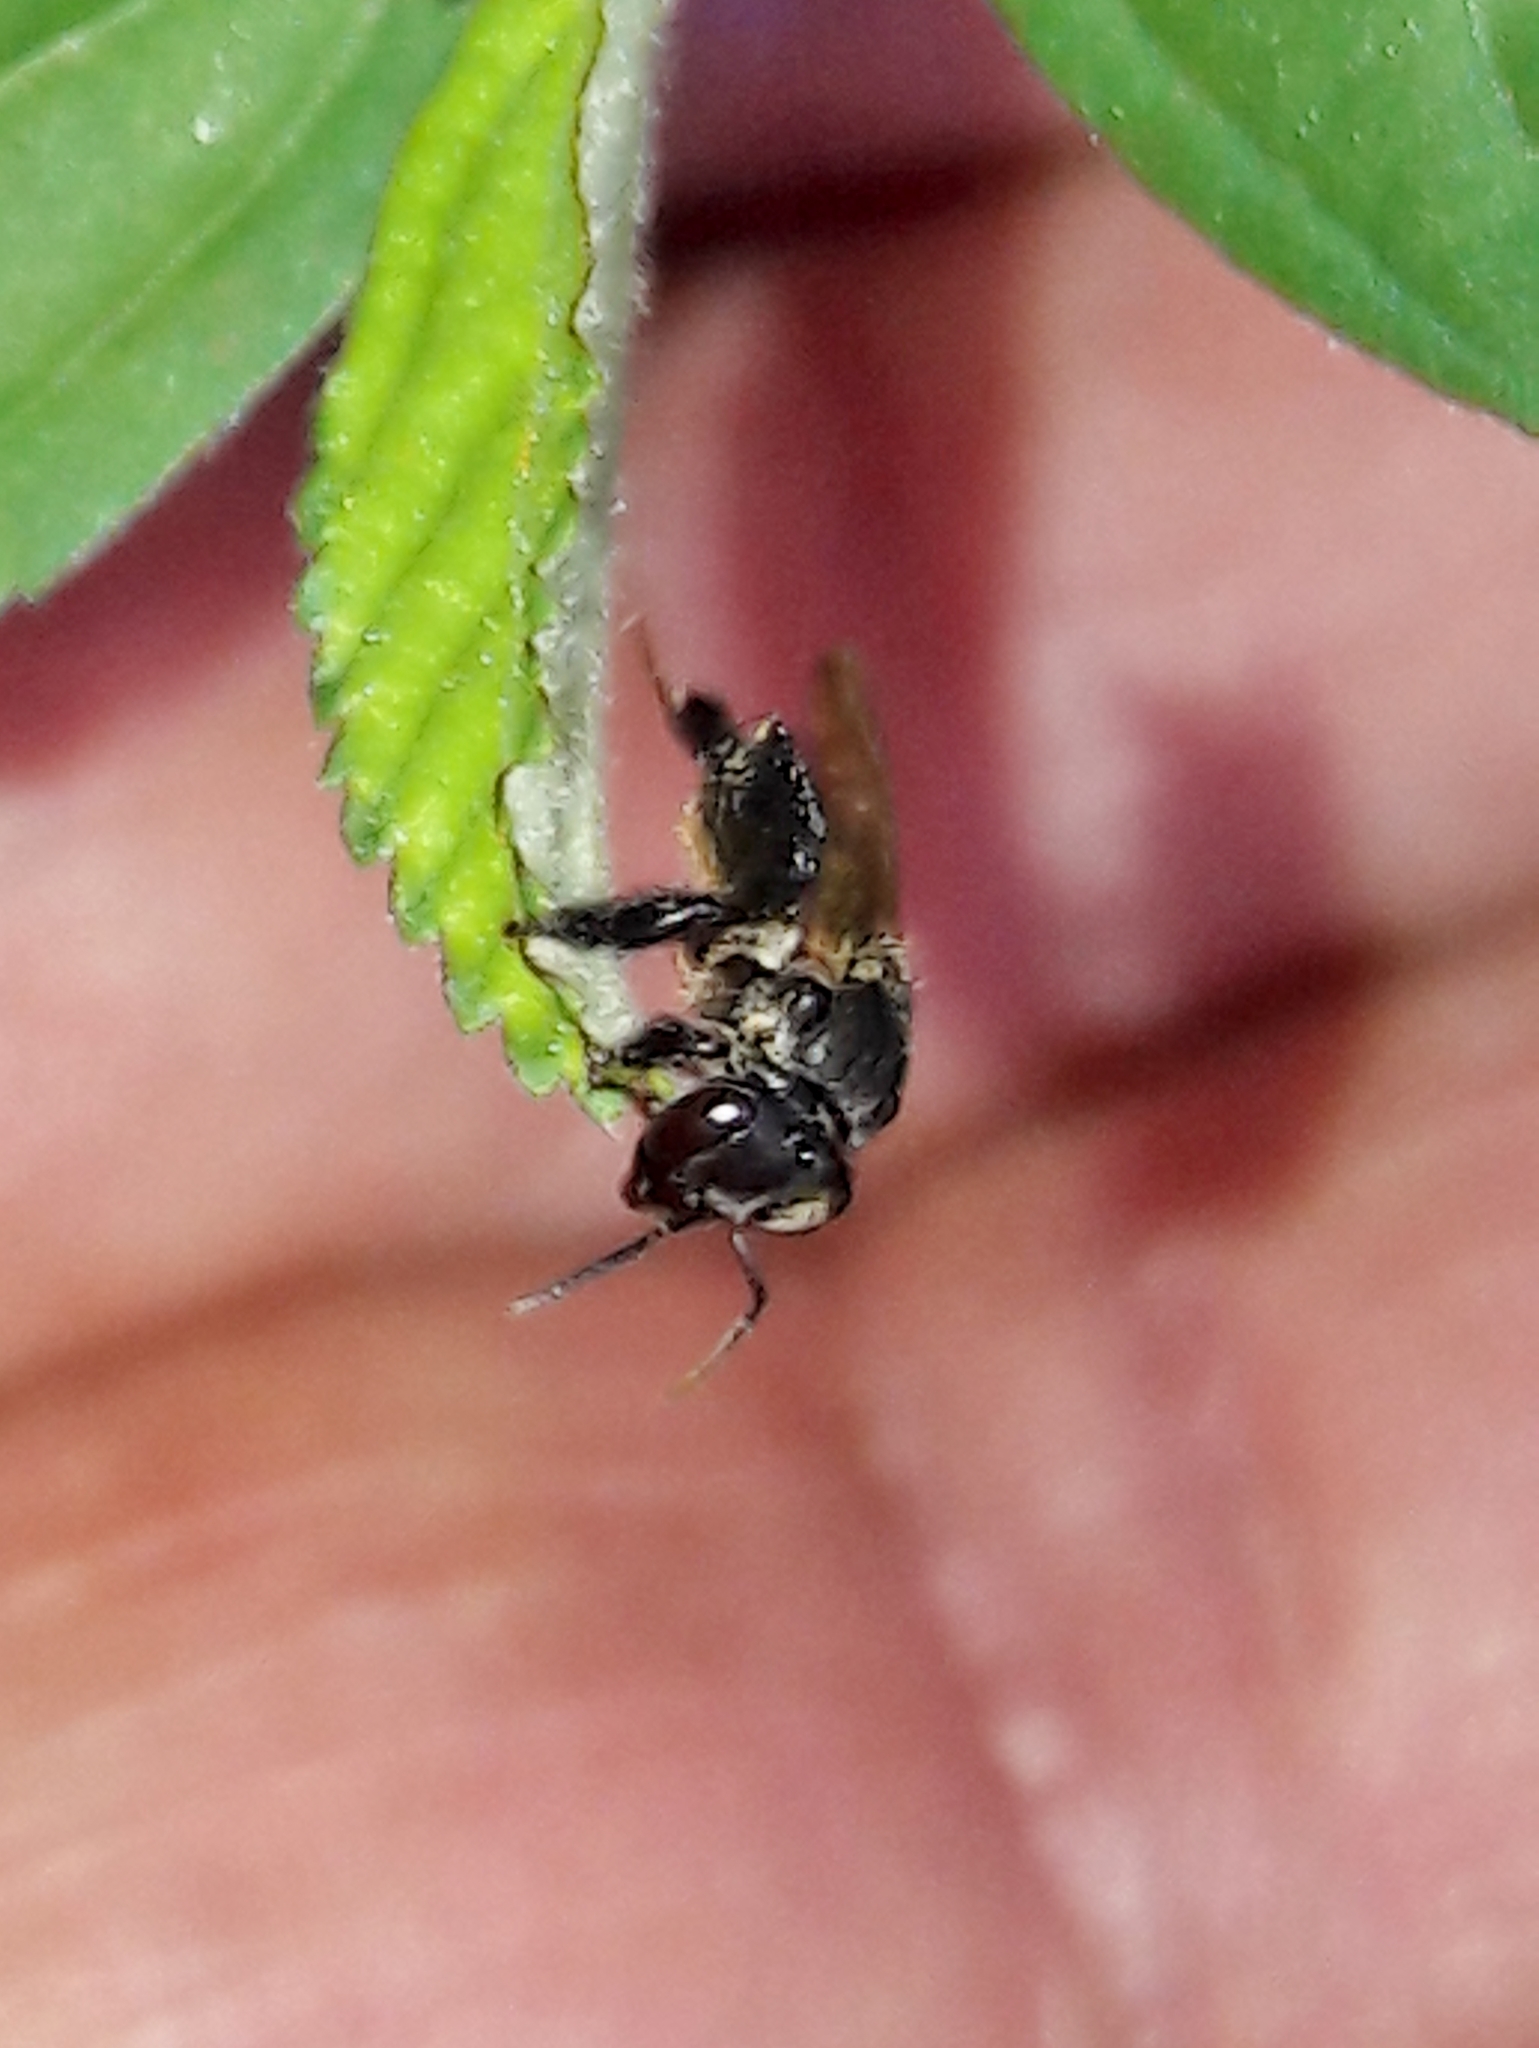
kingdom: Animalia
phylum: Arthropoda
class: Insecta
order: Hymenoptera
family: Apidae
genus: Scaptotrigona
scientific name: Scaptotrigona postica
